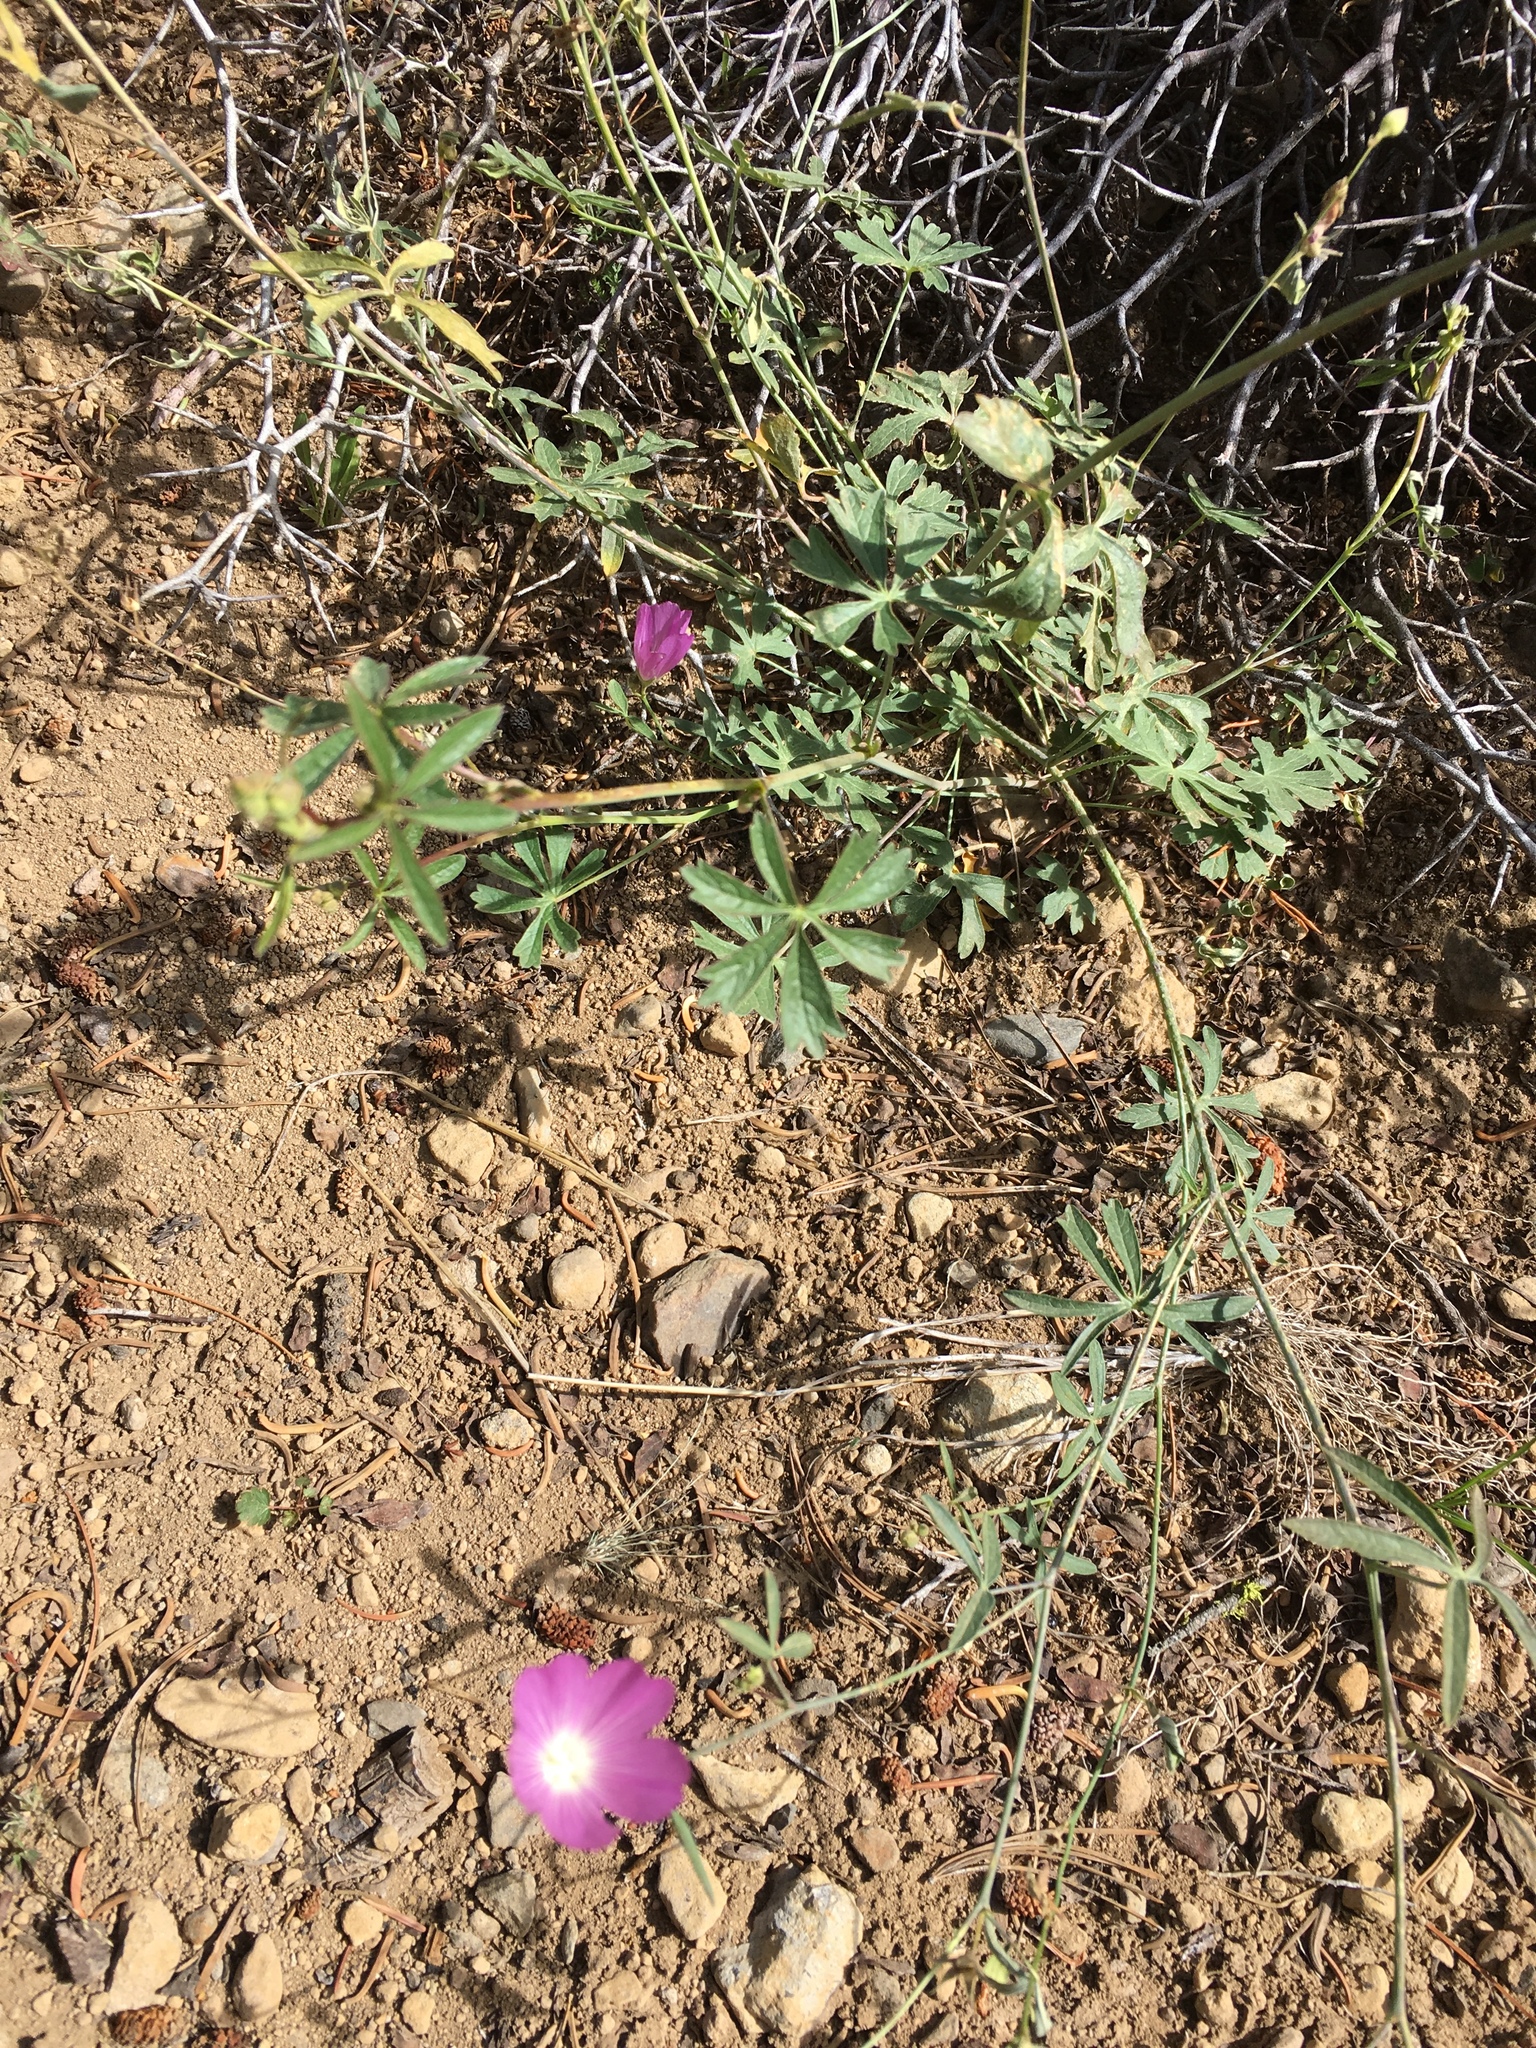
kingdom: Plantae
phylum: Tracheophyta
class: Magnoliopsida
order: Malvales
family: Malvaceae
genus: Sidalcea
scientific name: Sidalcea glaucescens
